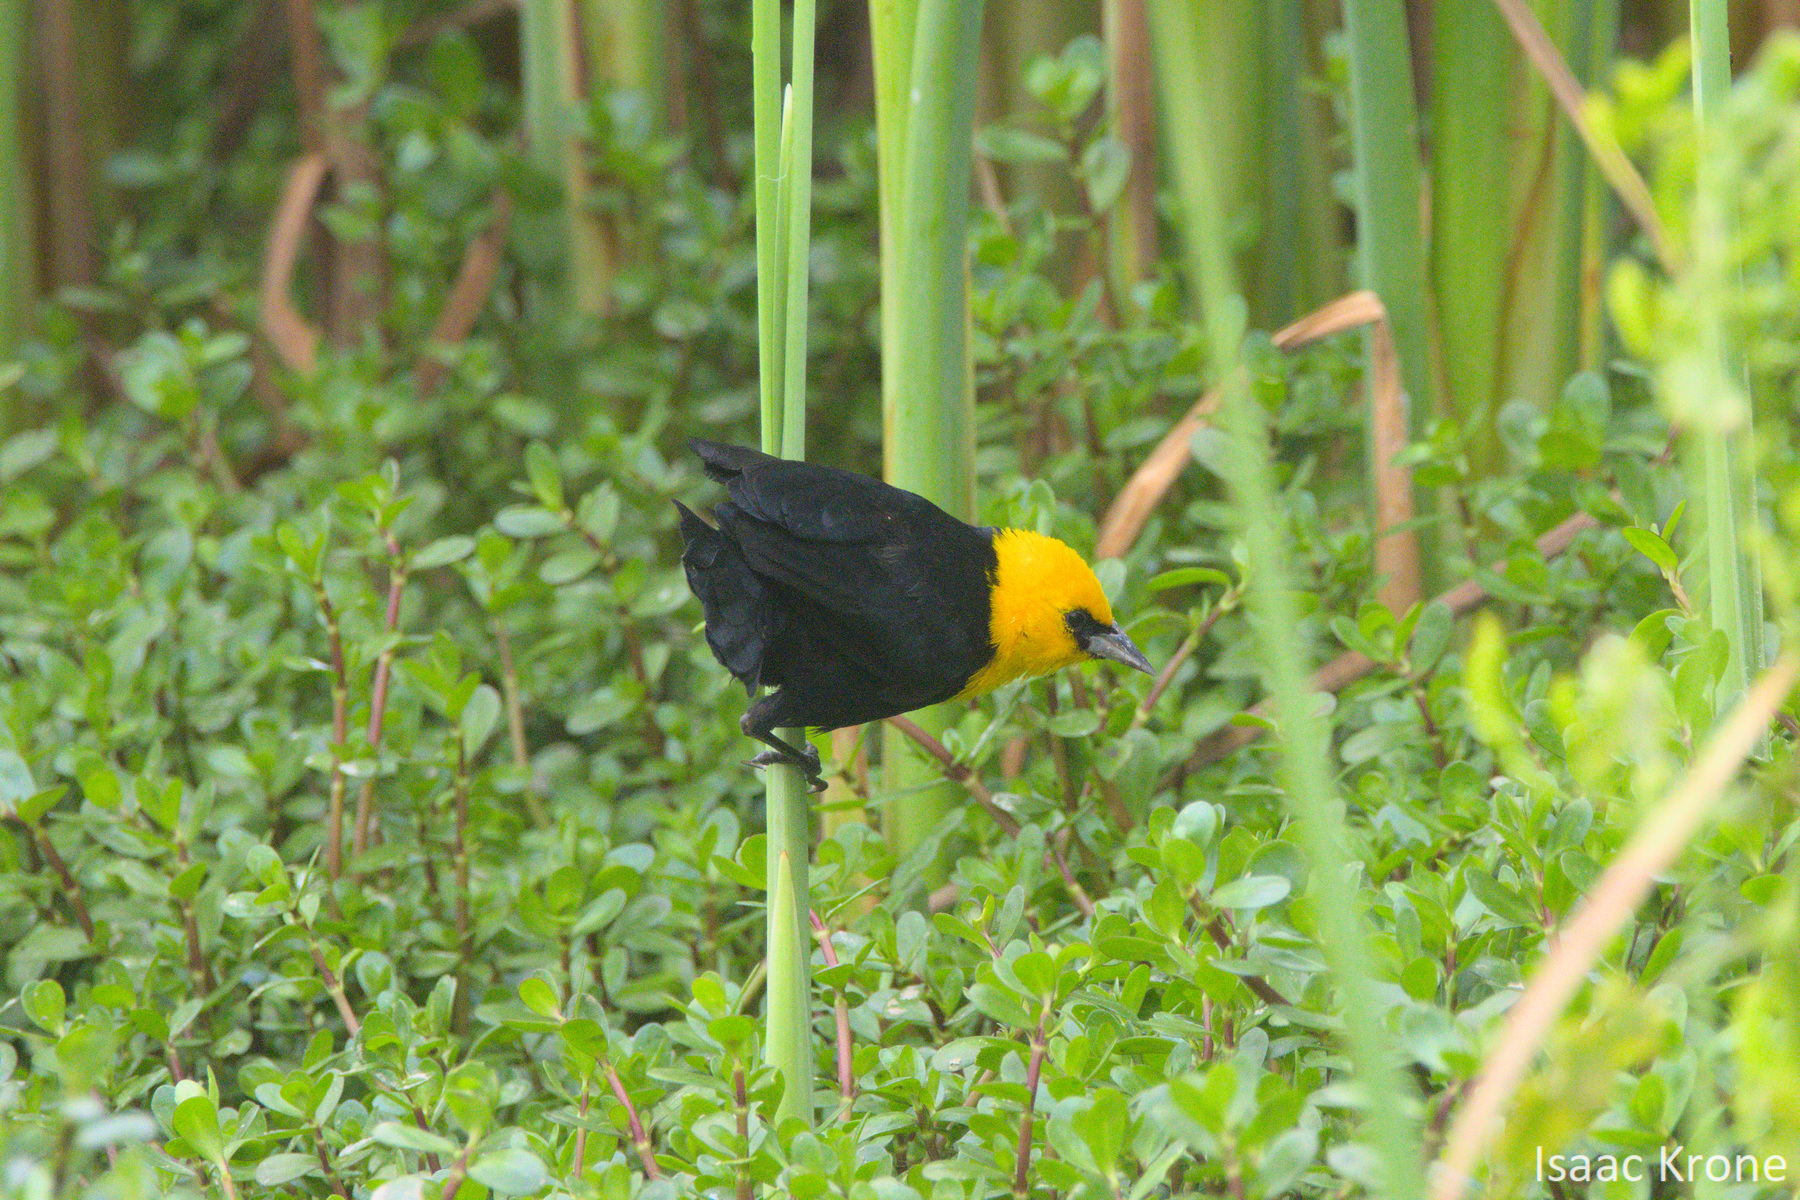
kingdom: Animalia
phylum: Chordata
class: Aves
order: Passeriformes
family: Icteridae
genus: Chrysomus
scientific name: Chrysomus icterocephalus
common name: Yellow-hooded blackbird
